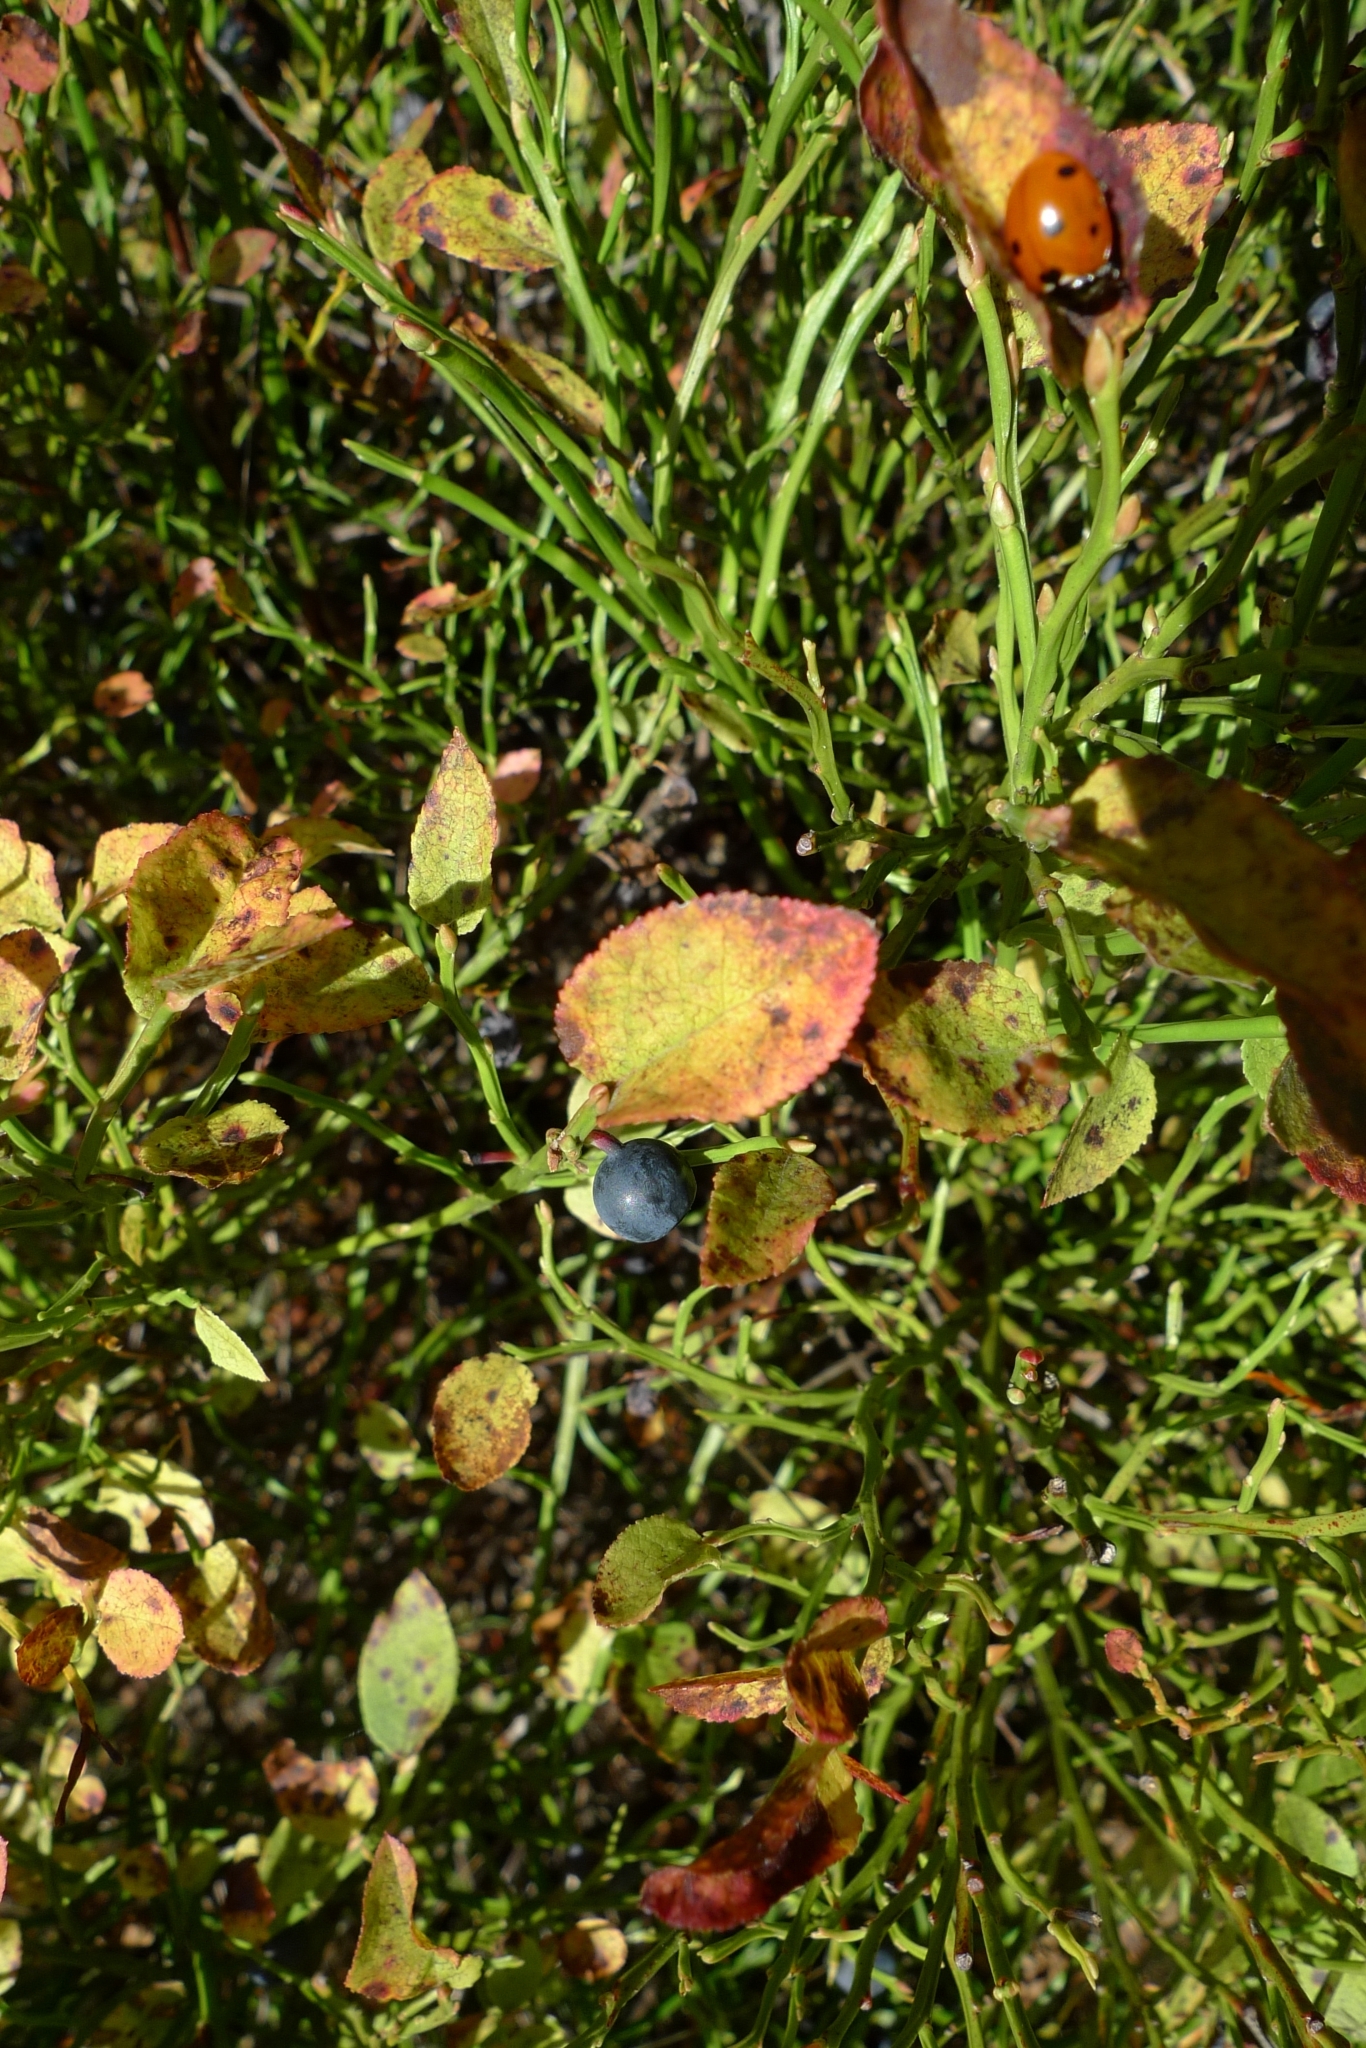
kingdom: Plantae
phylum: Tracheophyta
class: Magnoliopsida
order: Ericales
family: Ericaceae
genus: Vaccinium
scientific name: Vaccinium myrtillus
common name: Bilberry
